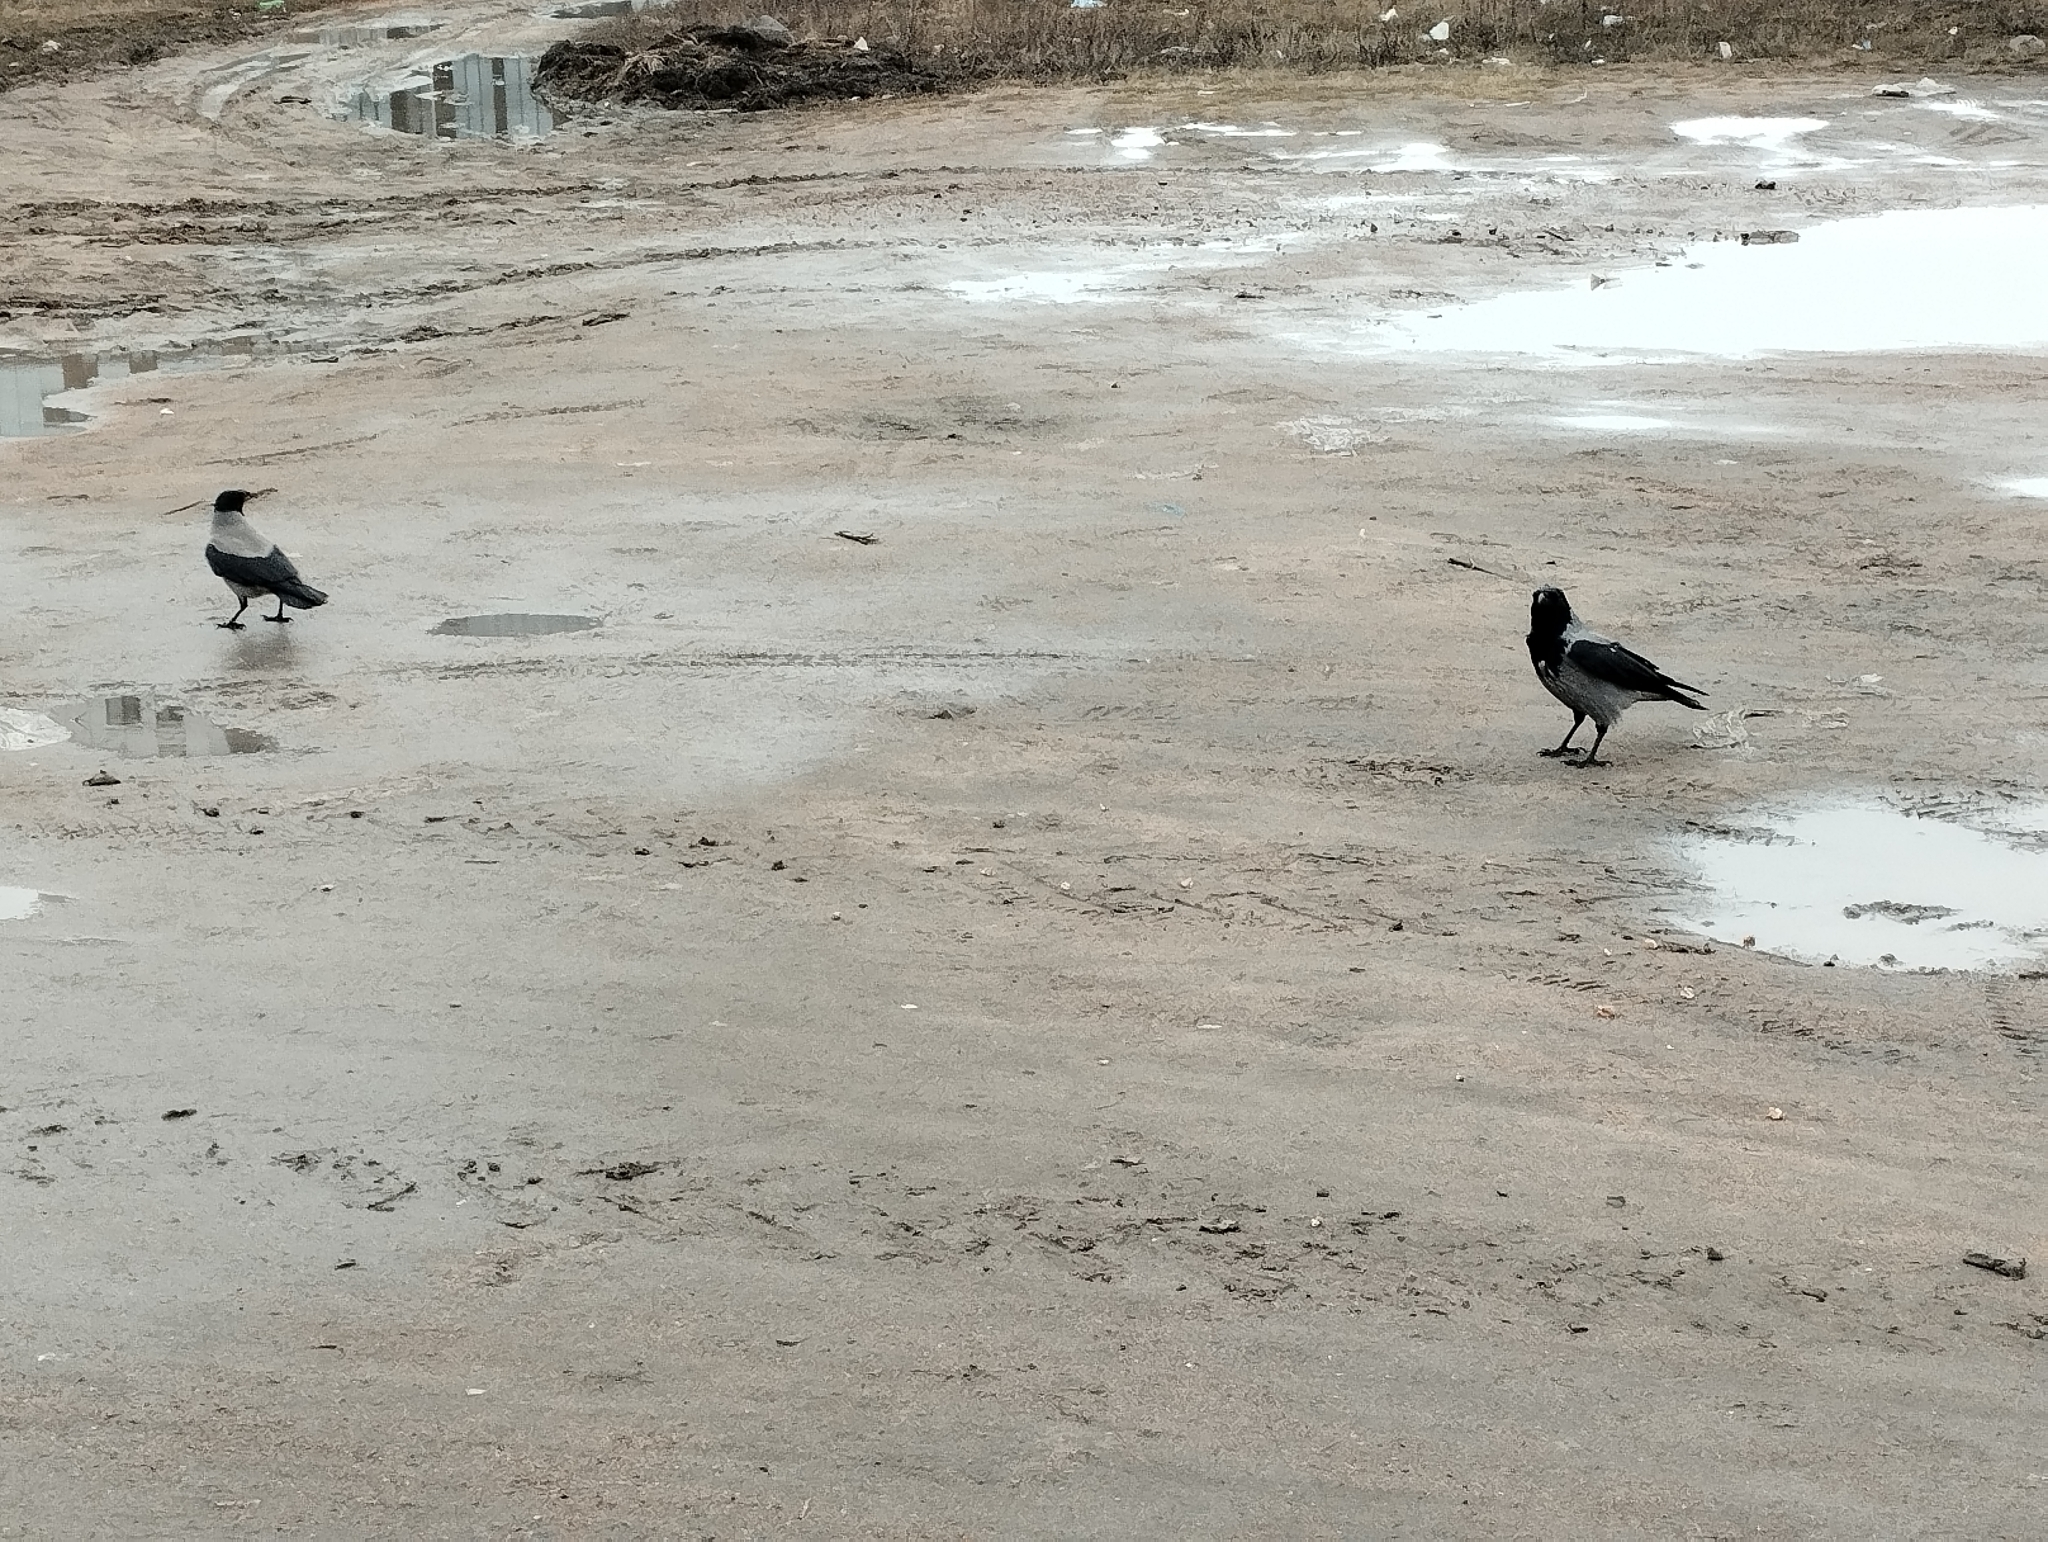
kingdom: Animalia
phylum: Chordata
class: Aves
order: Passeriformes
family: Corvidae
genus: Corvus
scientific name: Corvus cornix
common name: Hooded crow
